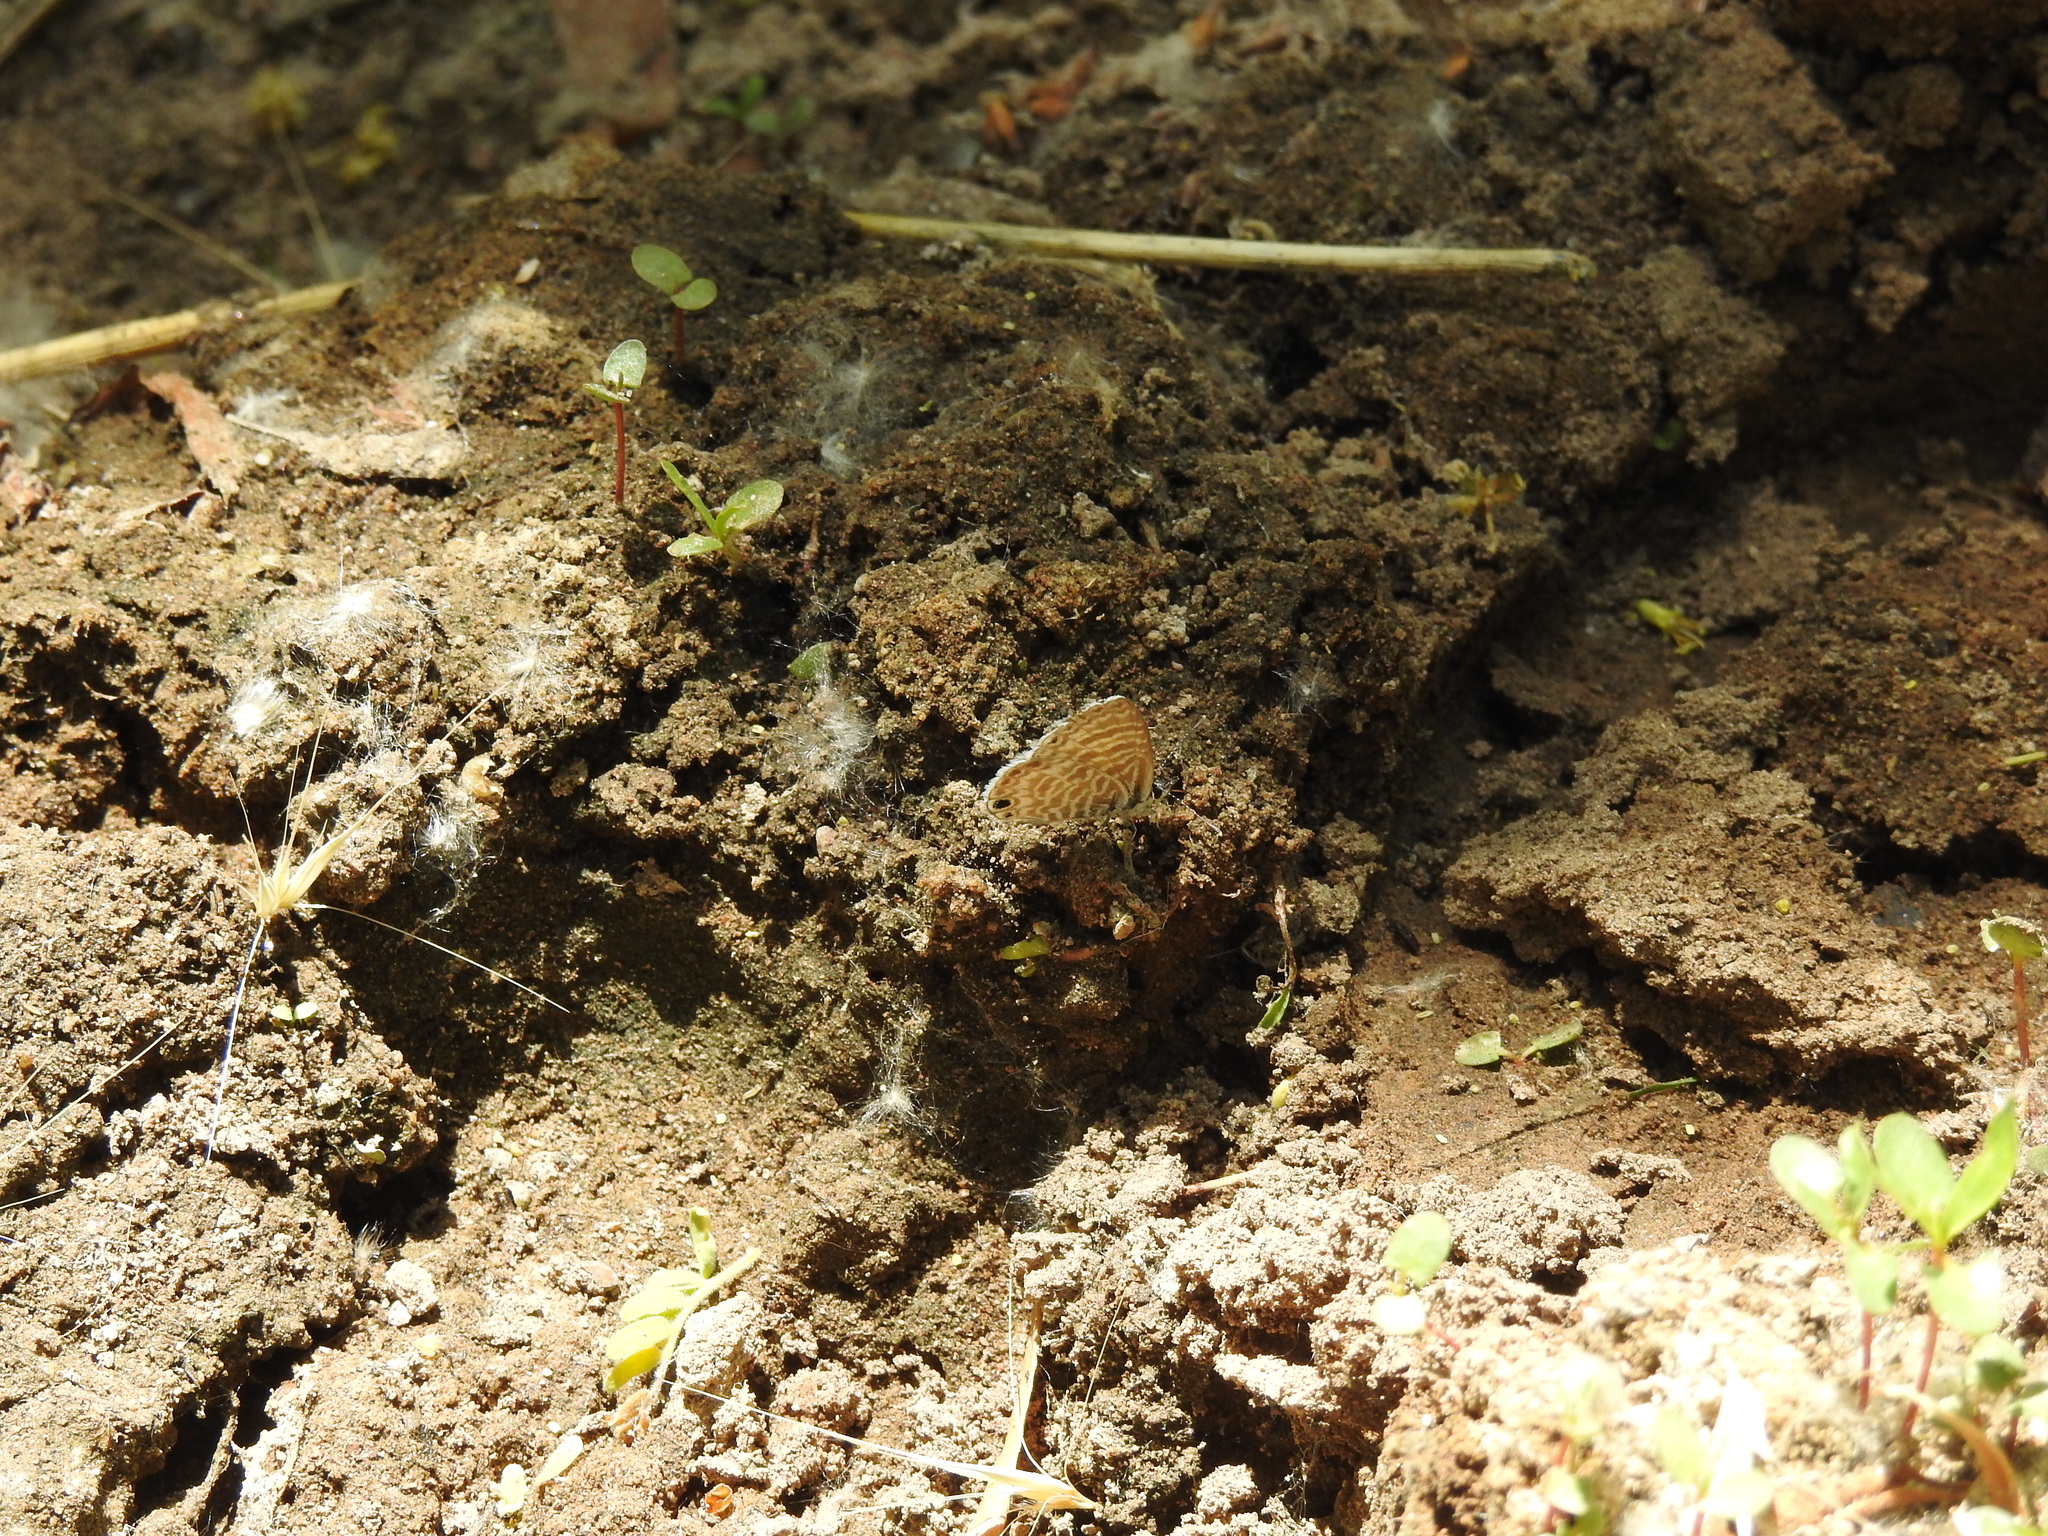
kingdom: Animalia
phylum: Arthropoda
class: Insecta
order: Lepidoptera
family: Lycaenidae
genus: Leptotes
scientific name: Leptotes marina
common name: Marine blue
